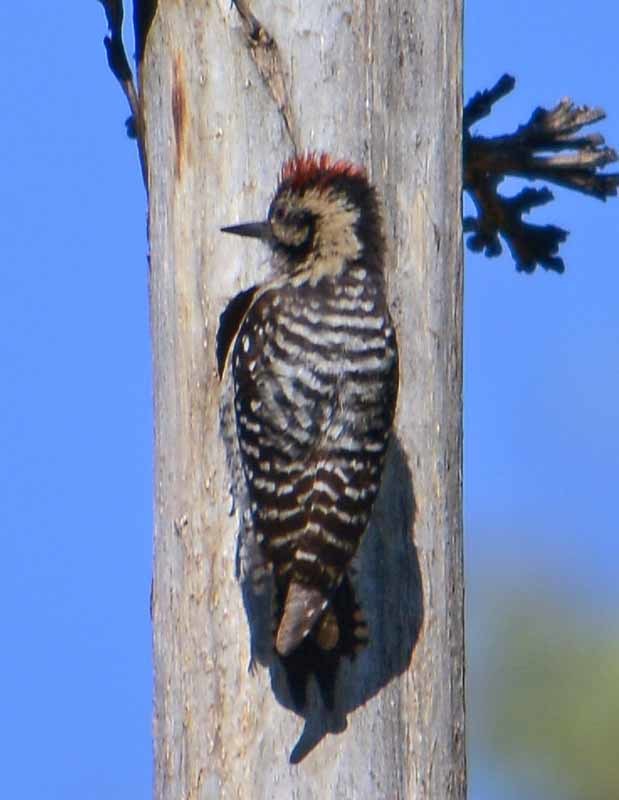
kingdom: Animalia
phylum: Chordata
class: Aves
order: Piciformes
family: Picidae
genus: Dryobates
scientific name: Dryobates scalaris
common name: Ladder-backed woodpecker
